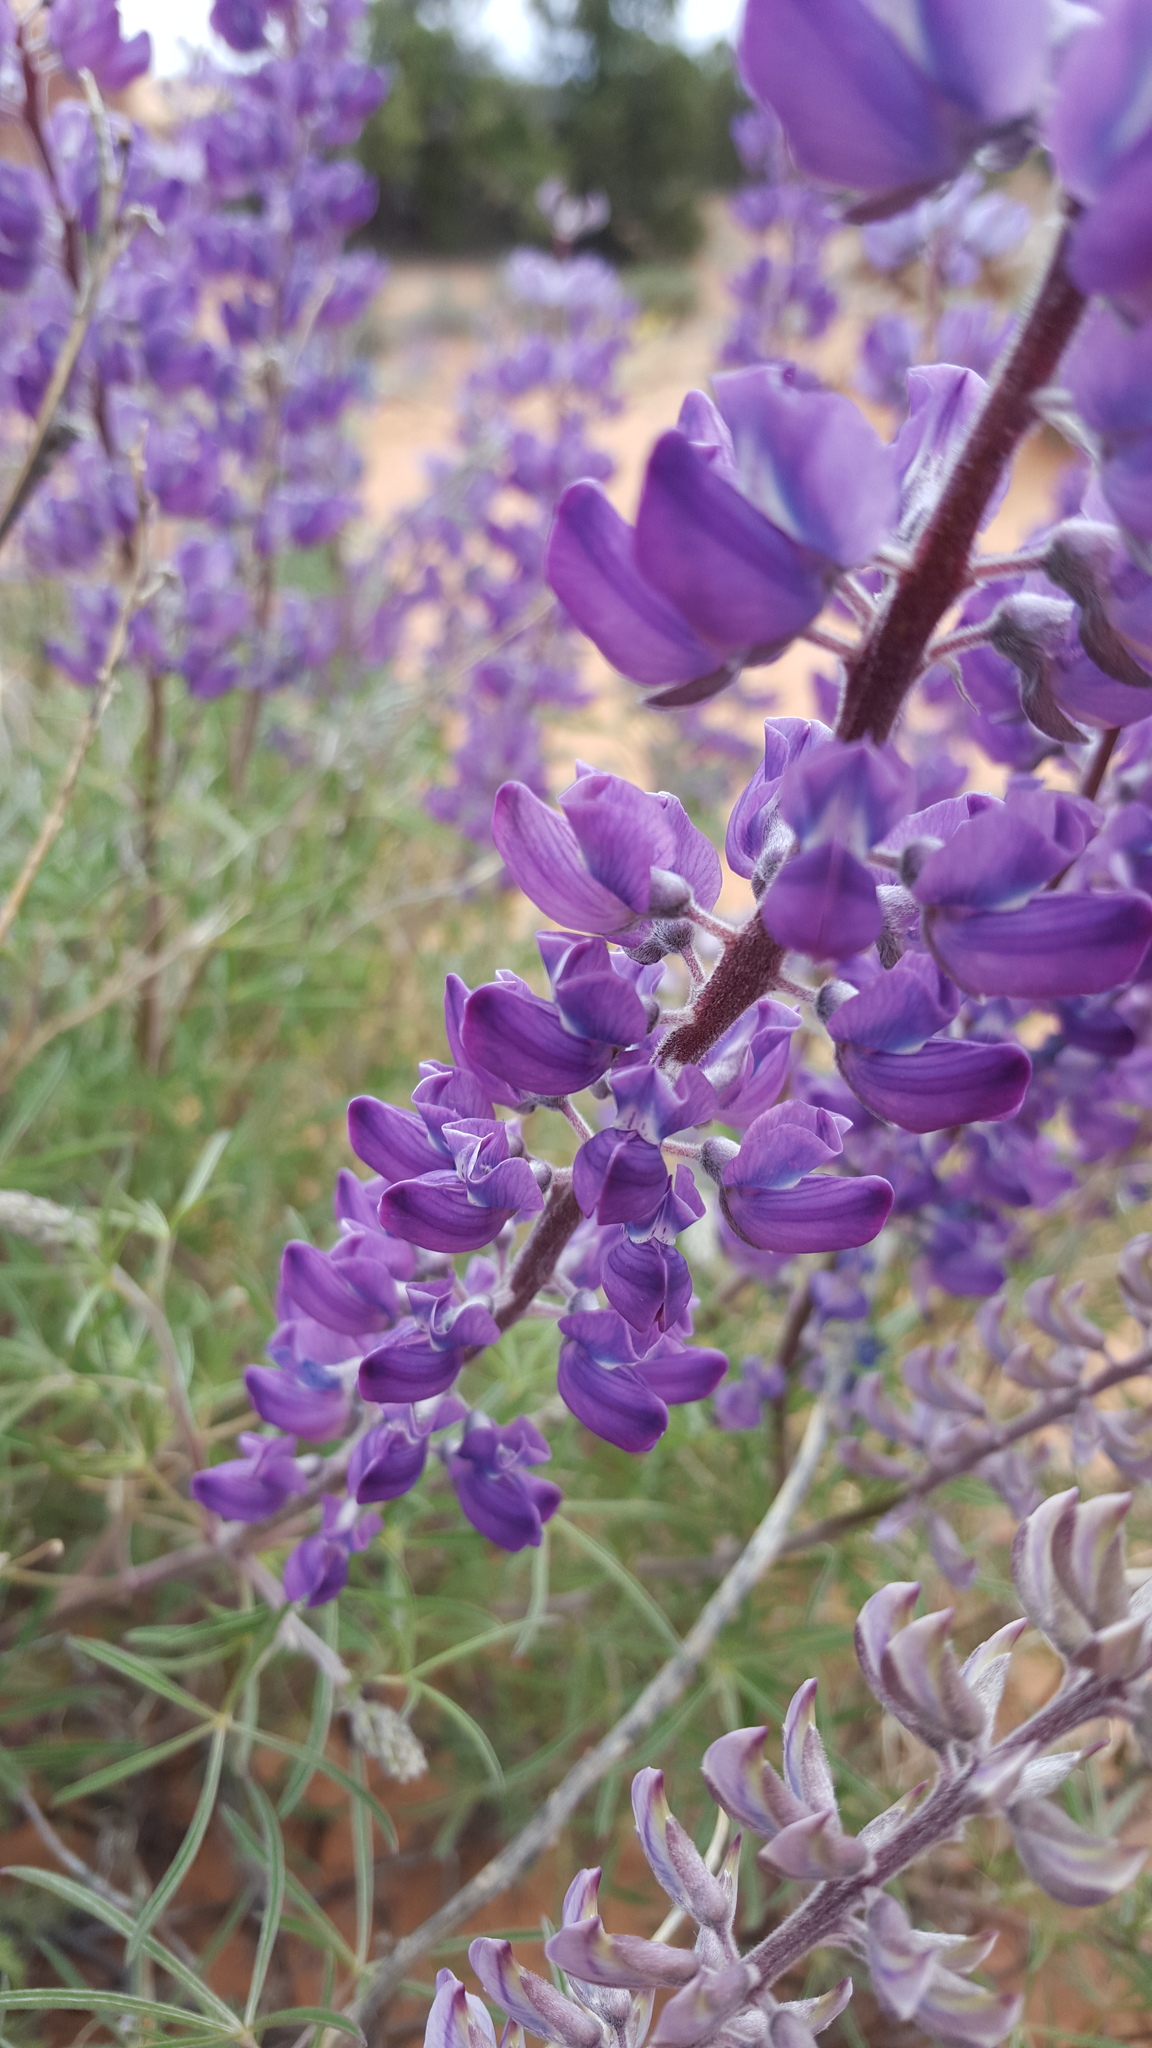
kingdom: Plantae
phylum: Tracheophyta
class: Magnoliopsida
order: Fabales
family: Fabaceae
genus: Lupinus
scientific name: Lupinus argenteus
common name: Silvery lupine
